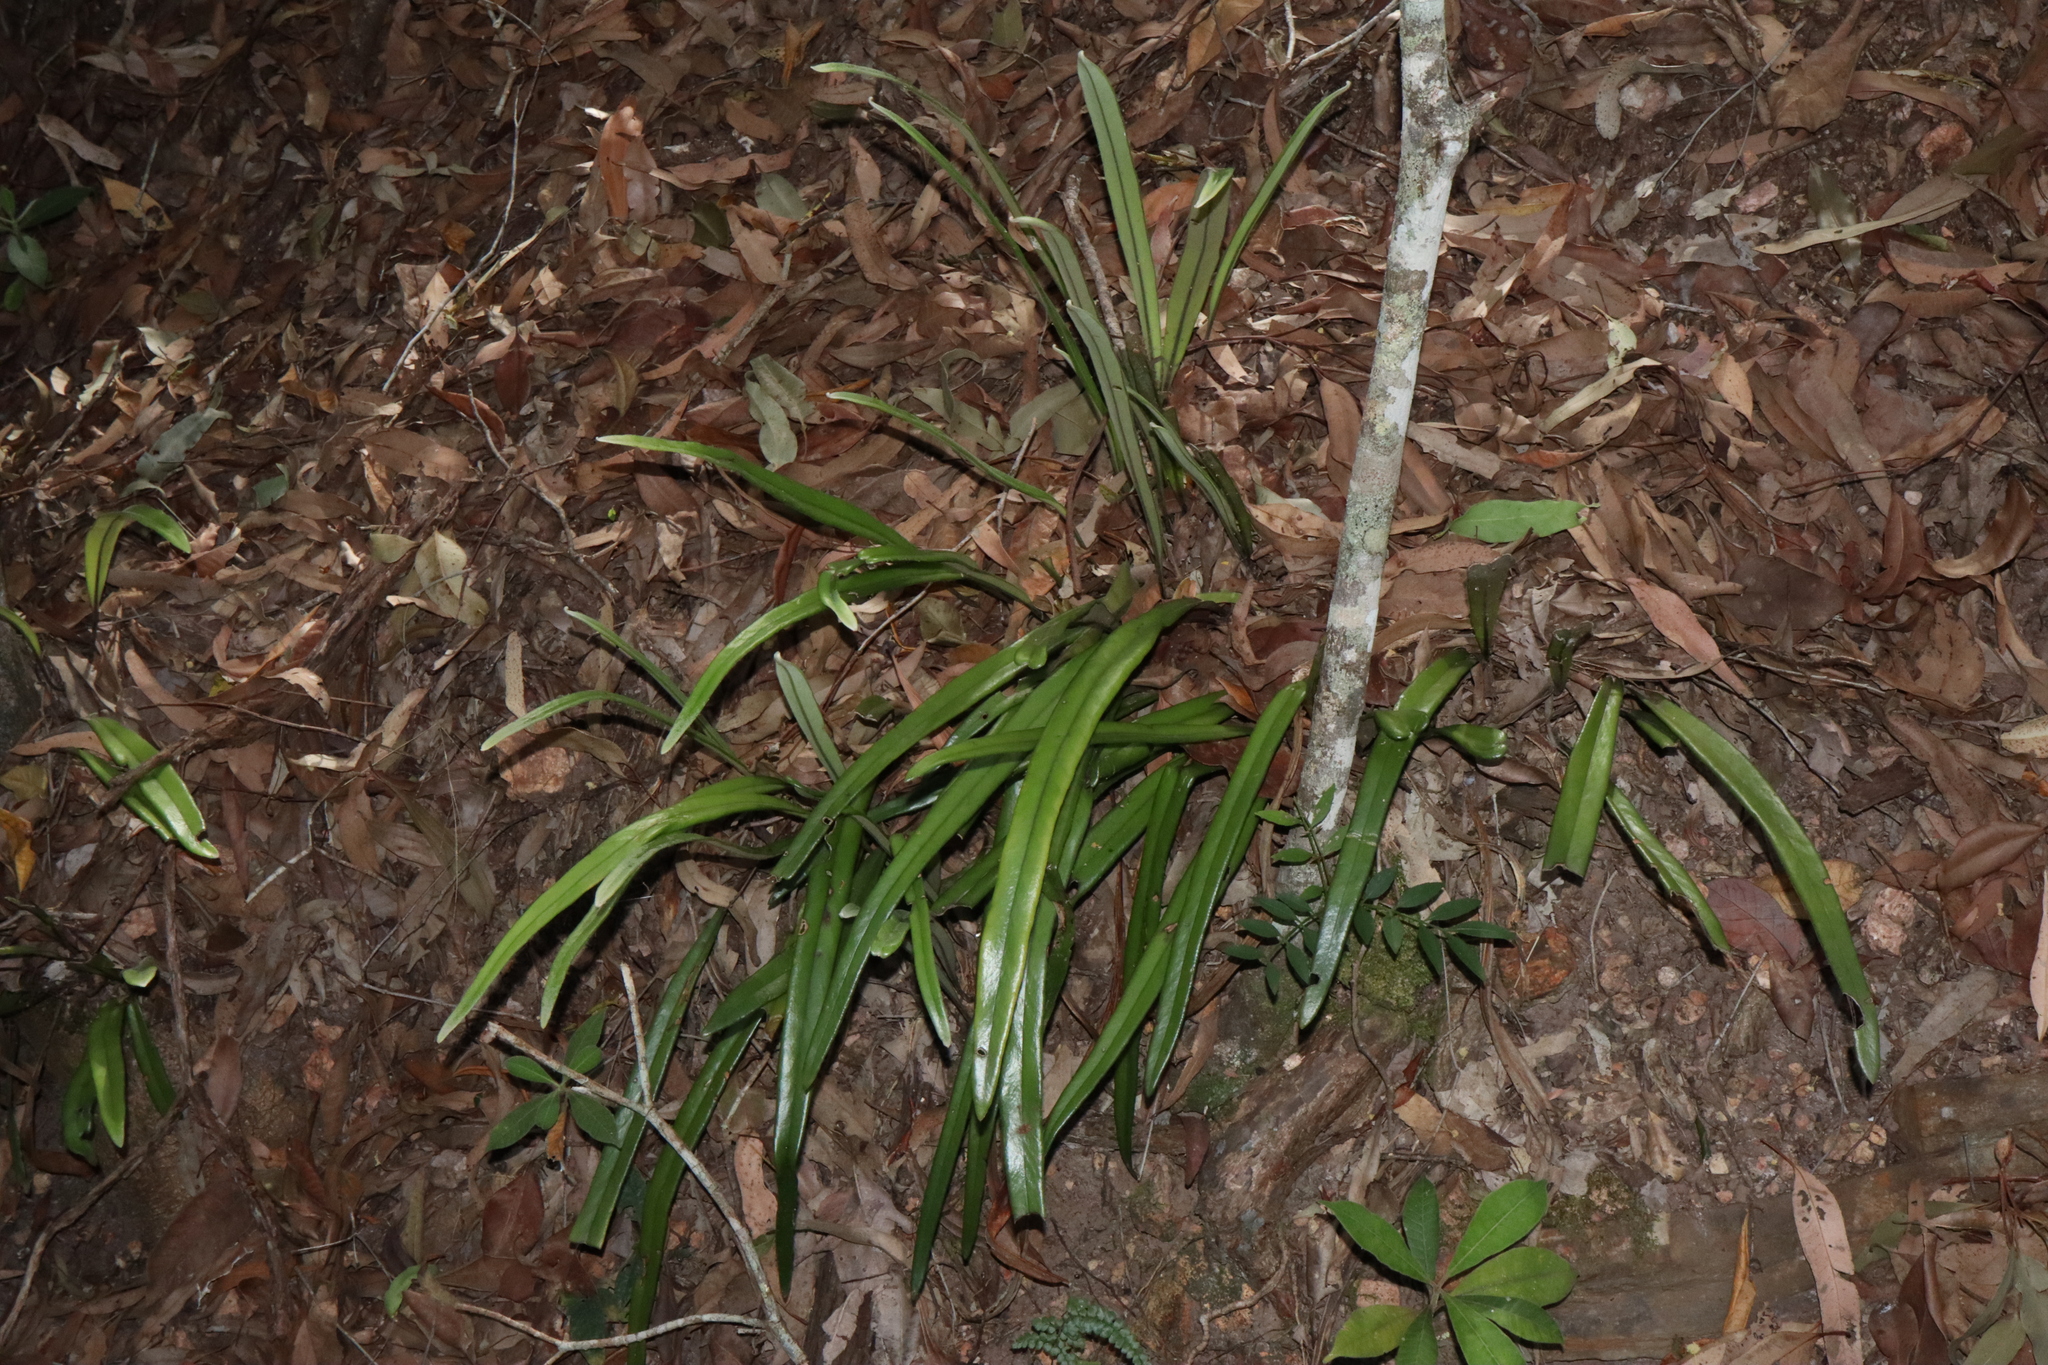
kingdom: Plantae
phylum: Tracheophyta
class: Polypodiopsida
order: Polypodiales
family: Polypodiaceae
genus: Pyrrosia
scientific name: Pyrrosia longifolia
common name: Long-leaved felt fern
